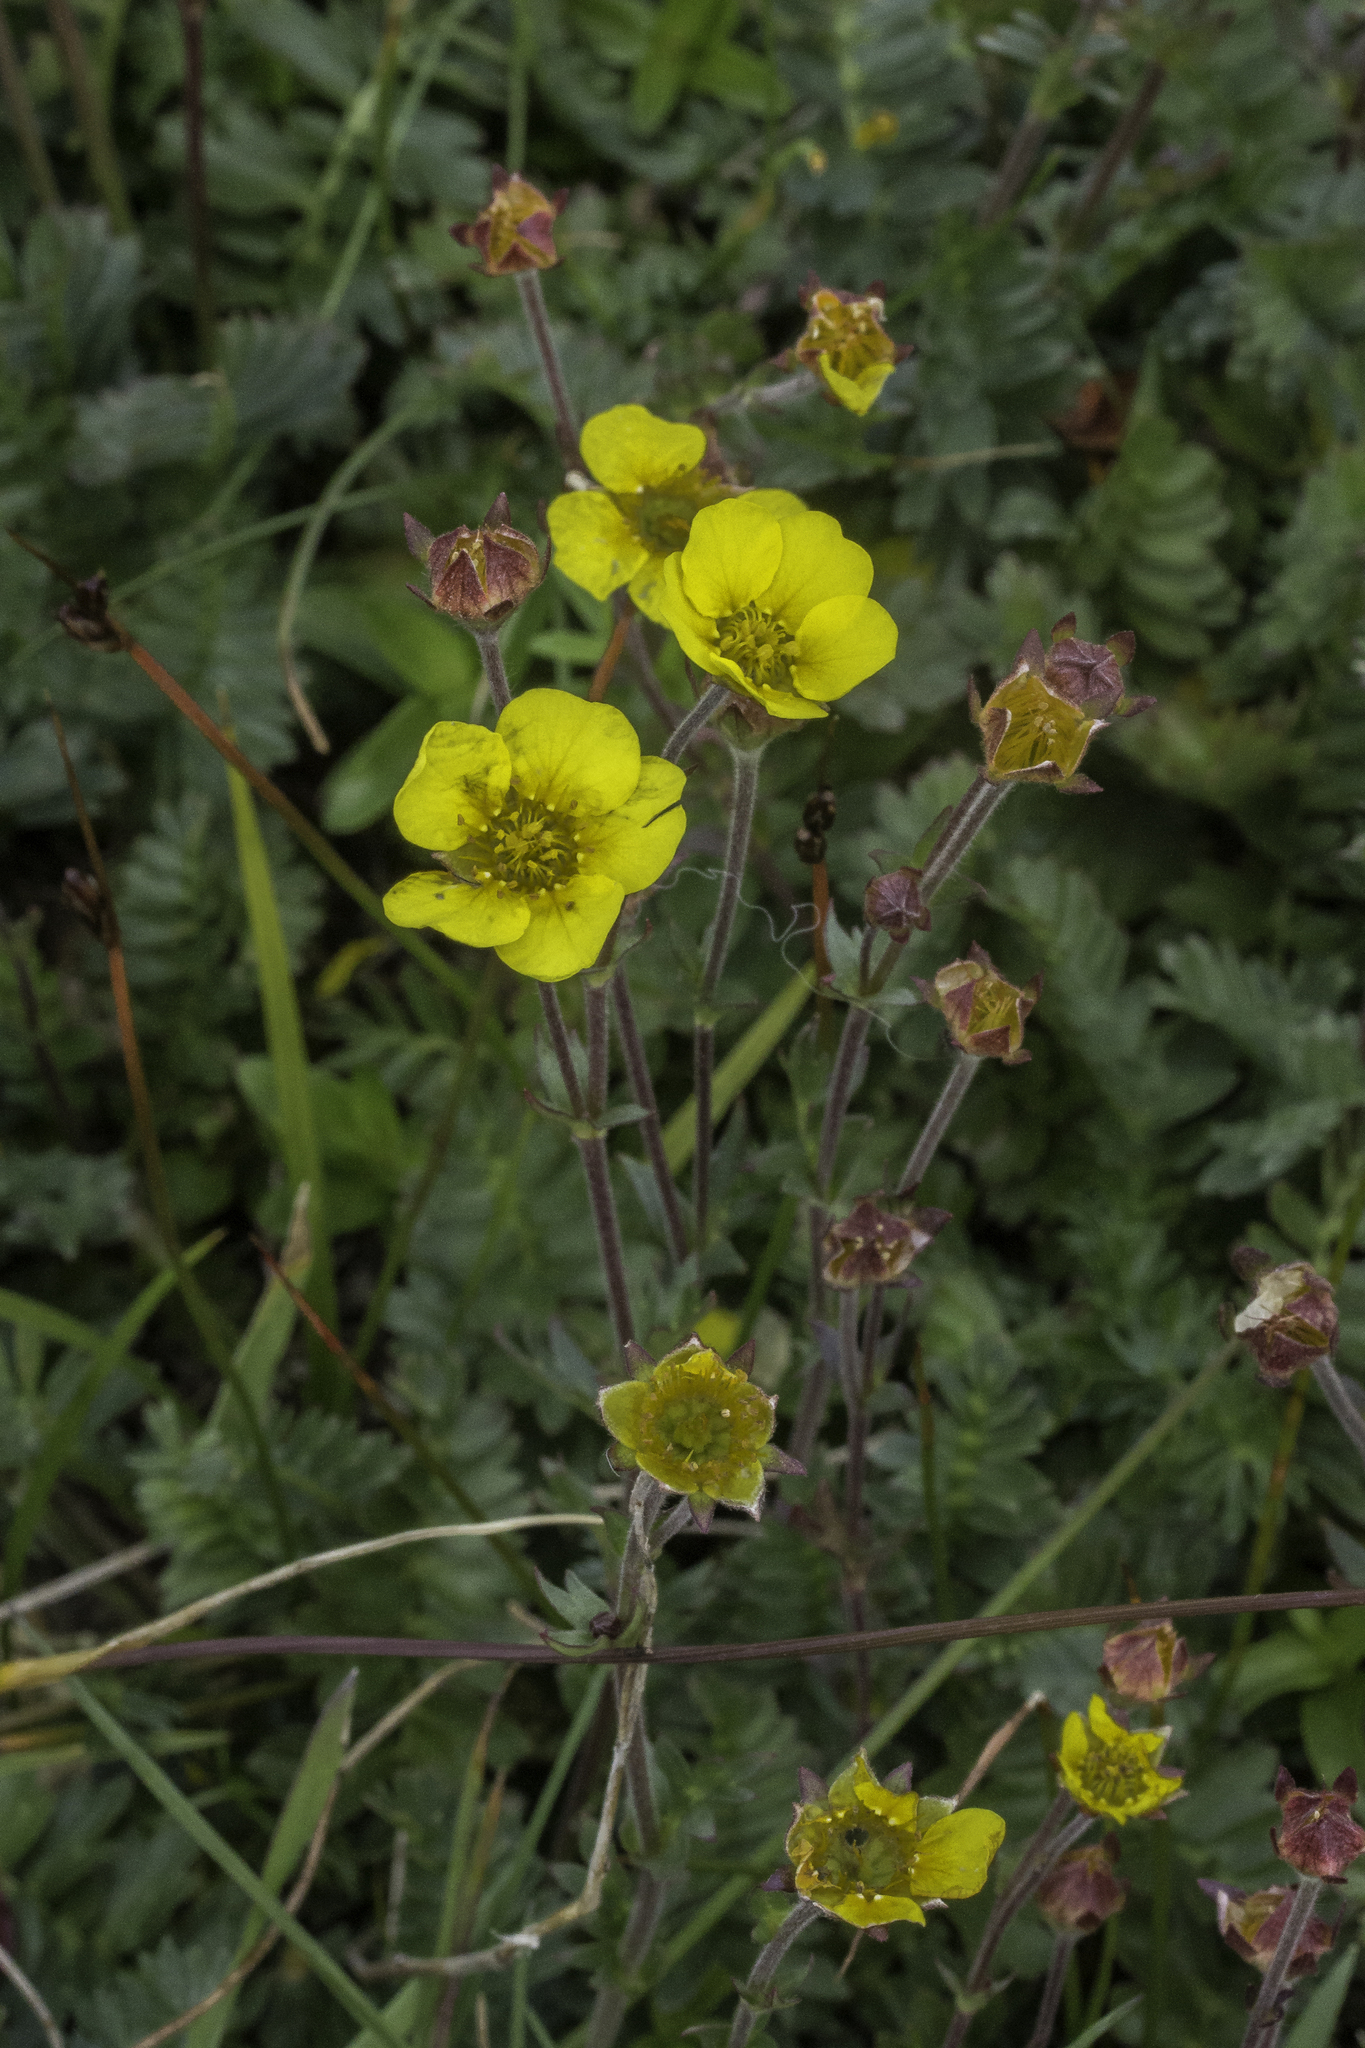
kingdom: Plantae
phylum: Tracheophyta
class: Magnoliopsida
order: Rosales
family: Rosaceae
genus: Geum
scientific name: Geum rossii
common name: Alpine avens
